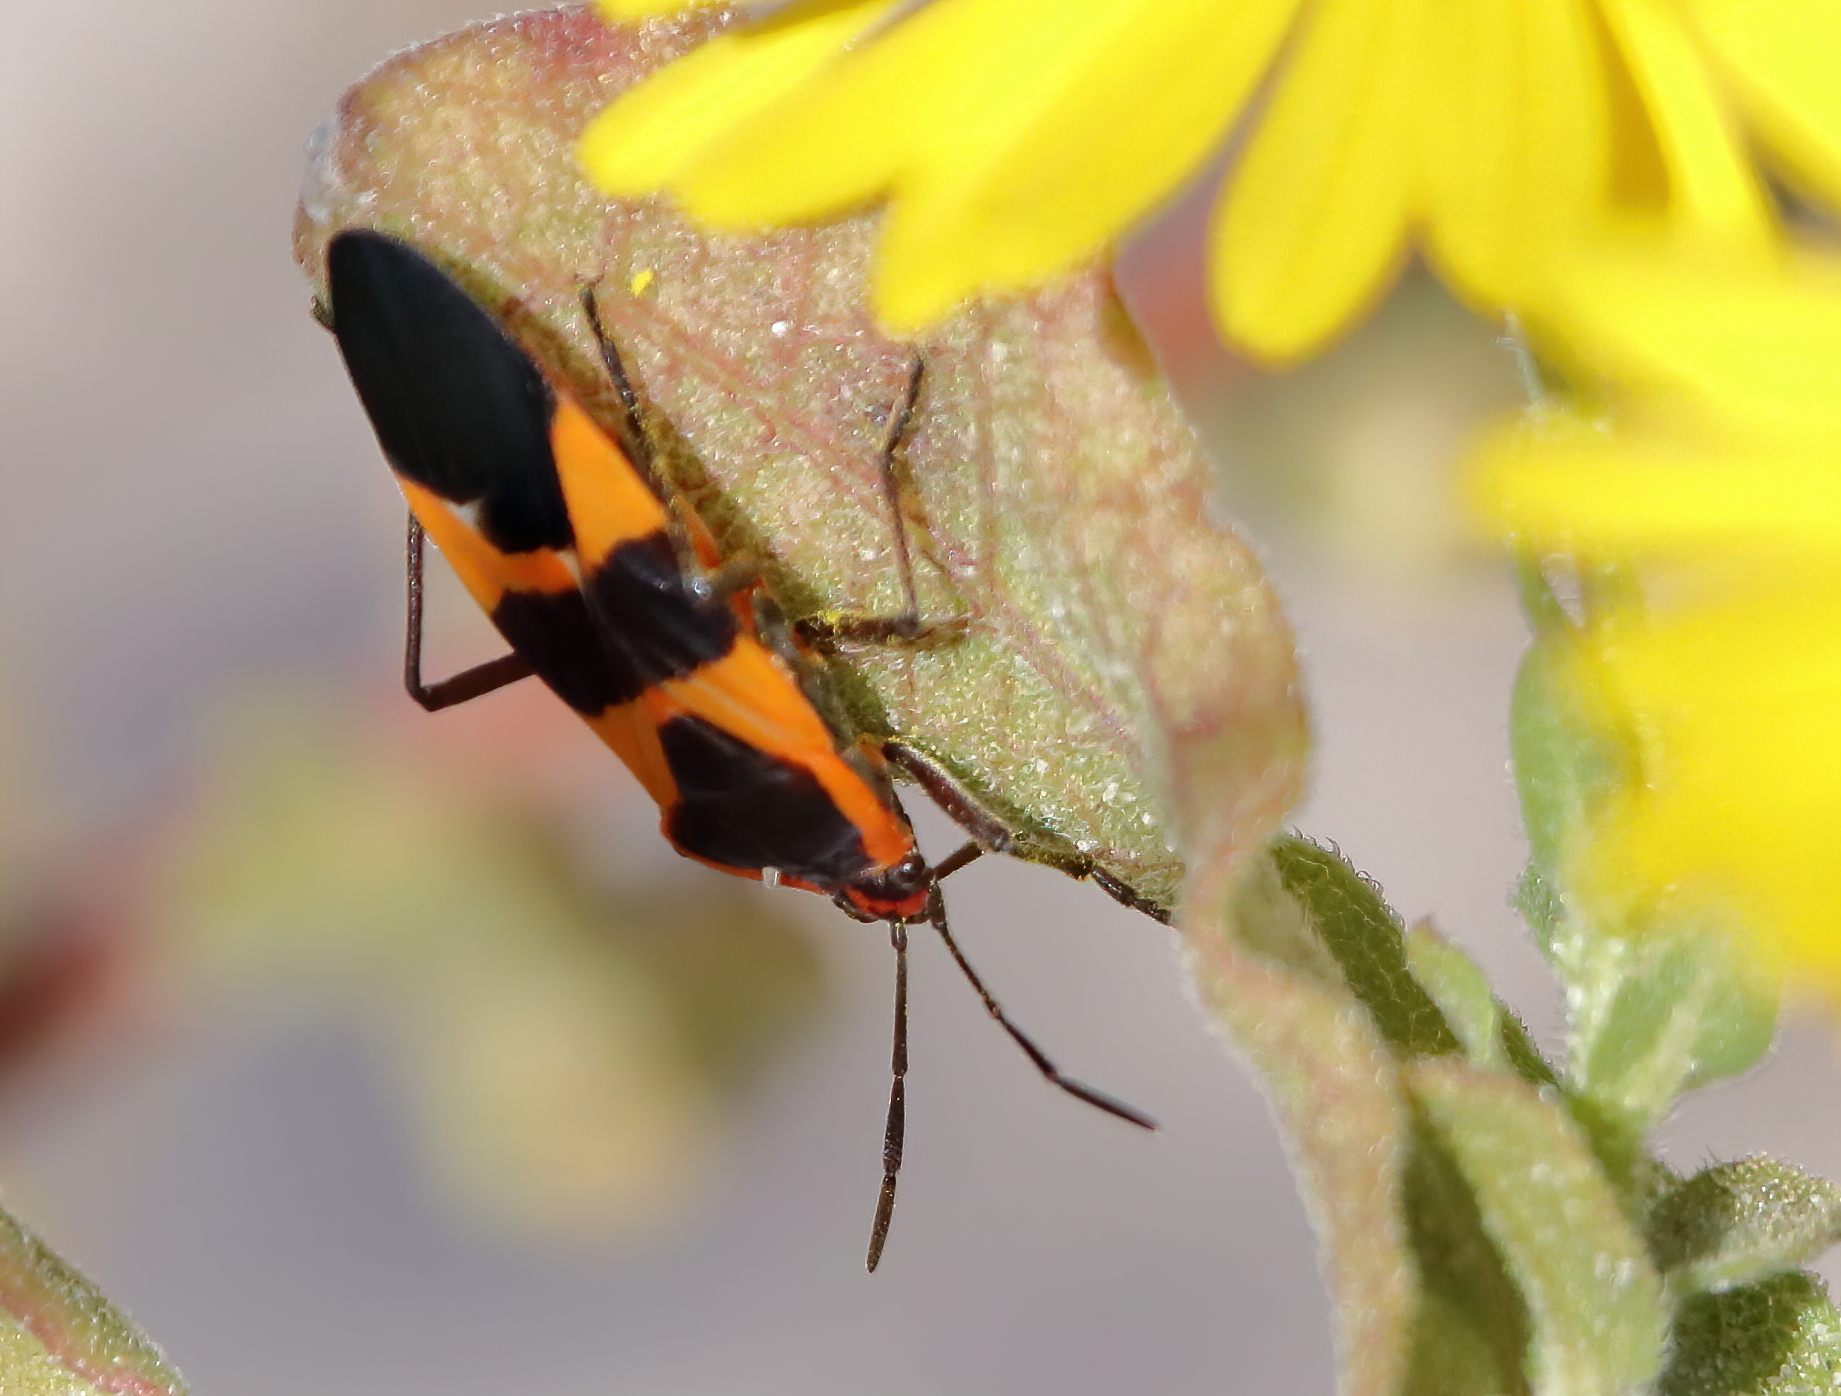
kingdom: Animalia
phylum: Arthropoda
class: Insecta
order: Hemiptera
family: Lygaeidae
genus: Oncopeltus
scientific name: Oncopeltus fasciatus
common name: Large milkweed bug
